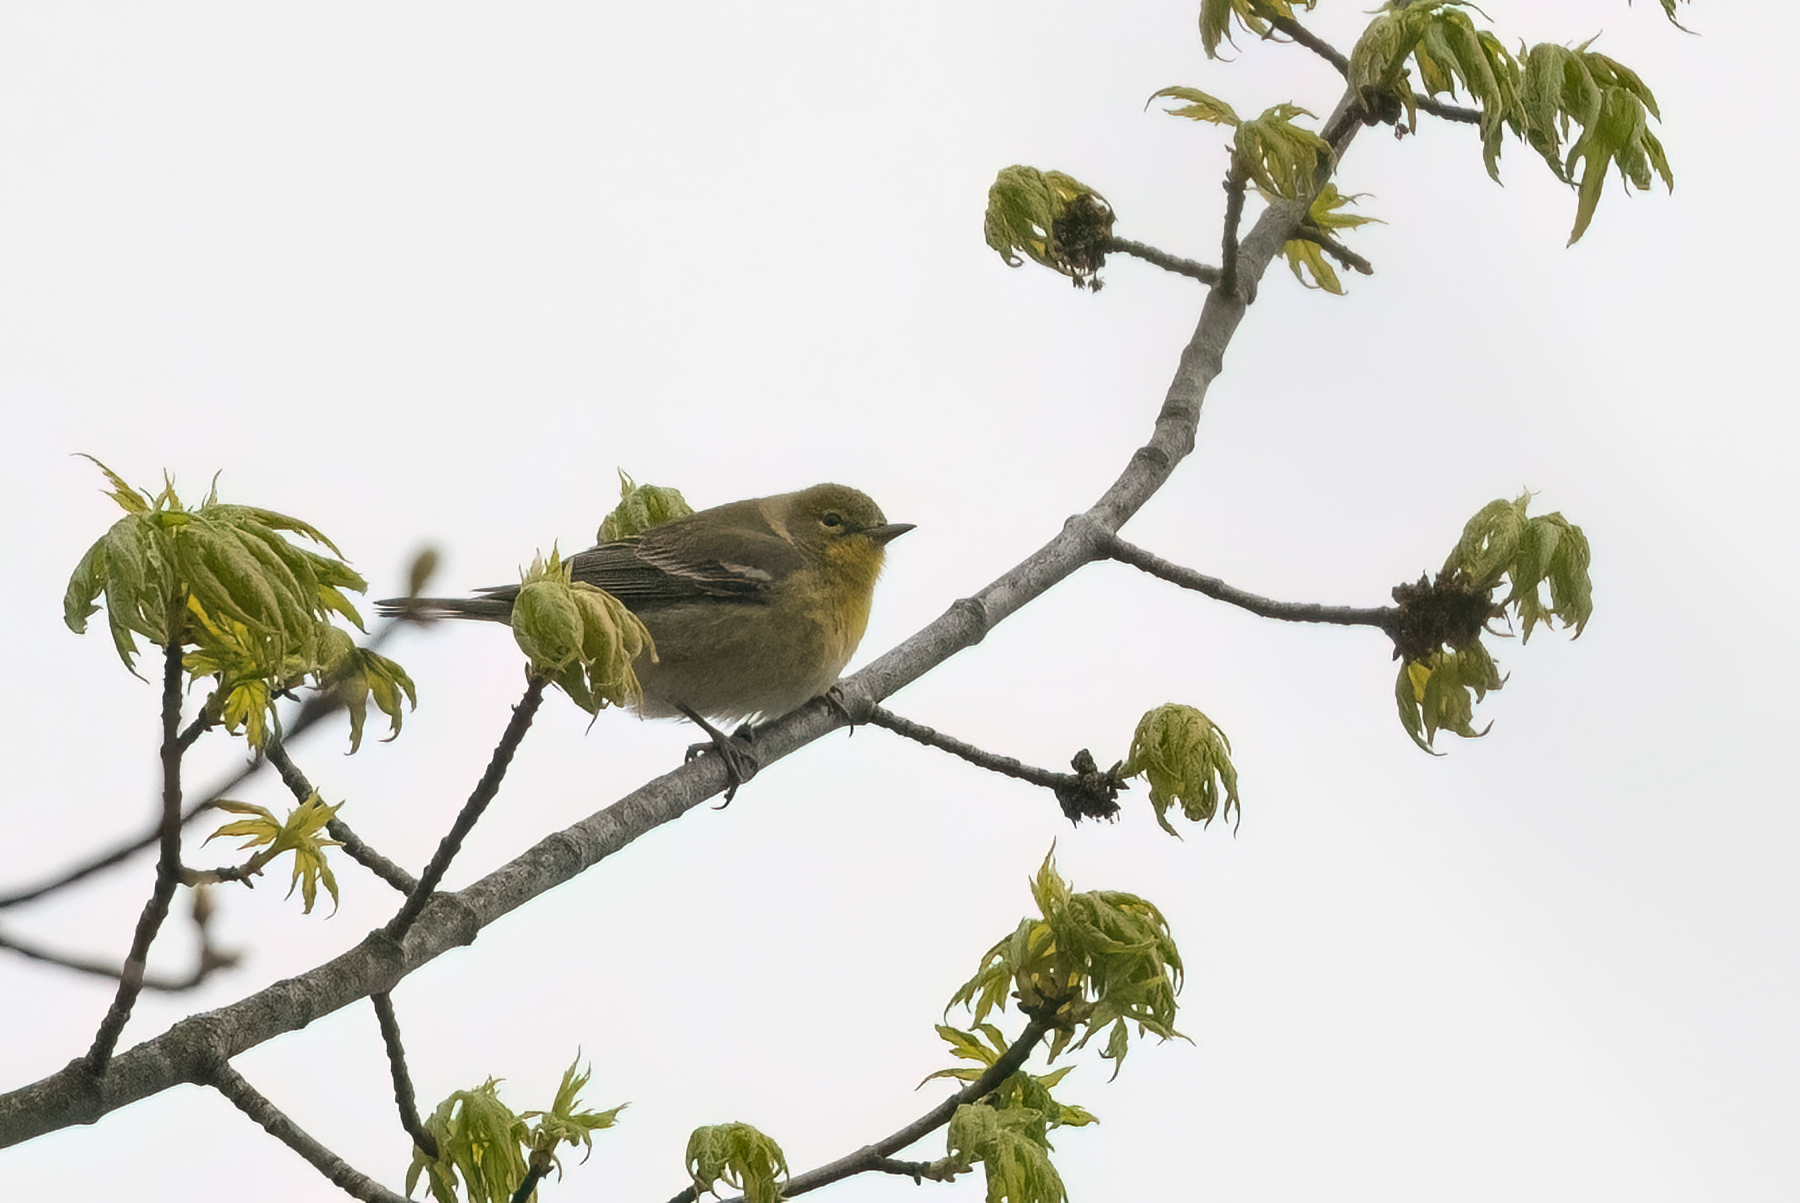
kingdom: Animalia
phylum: Chordata
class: Aves
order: Passeriformes
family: Parulidae
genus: Setophaga
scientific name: Setophaga pinus
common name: Pine warbler
